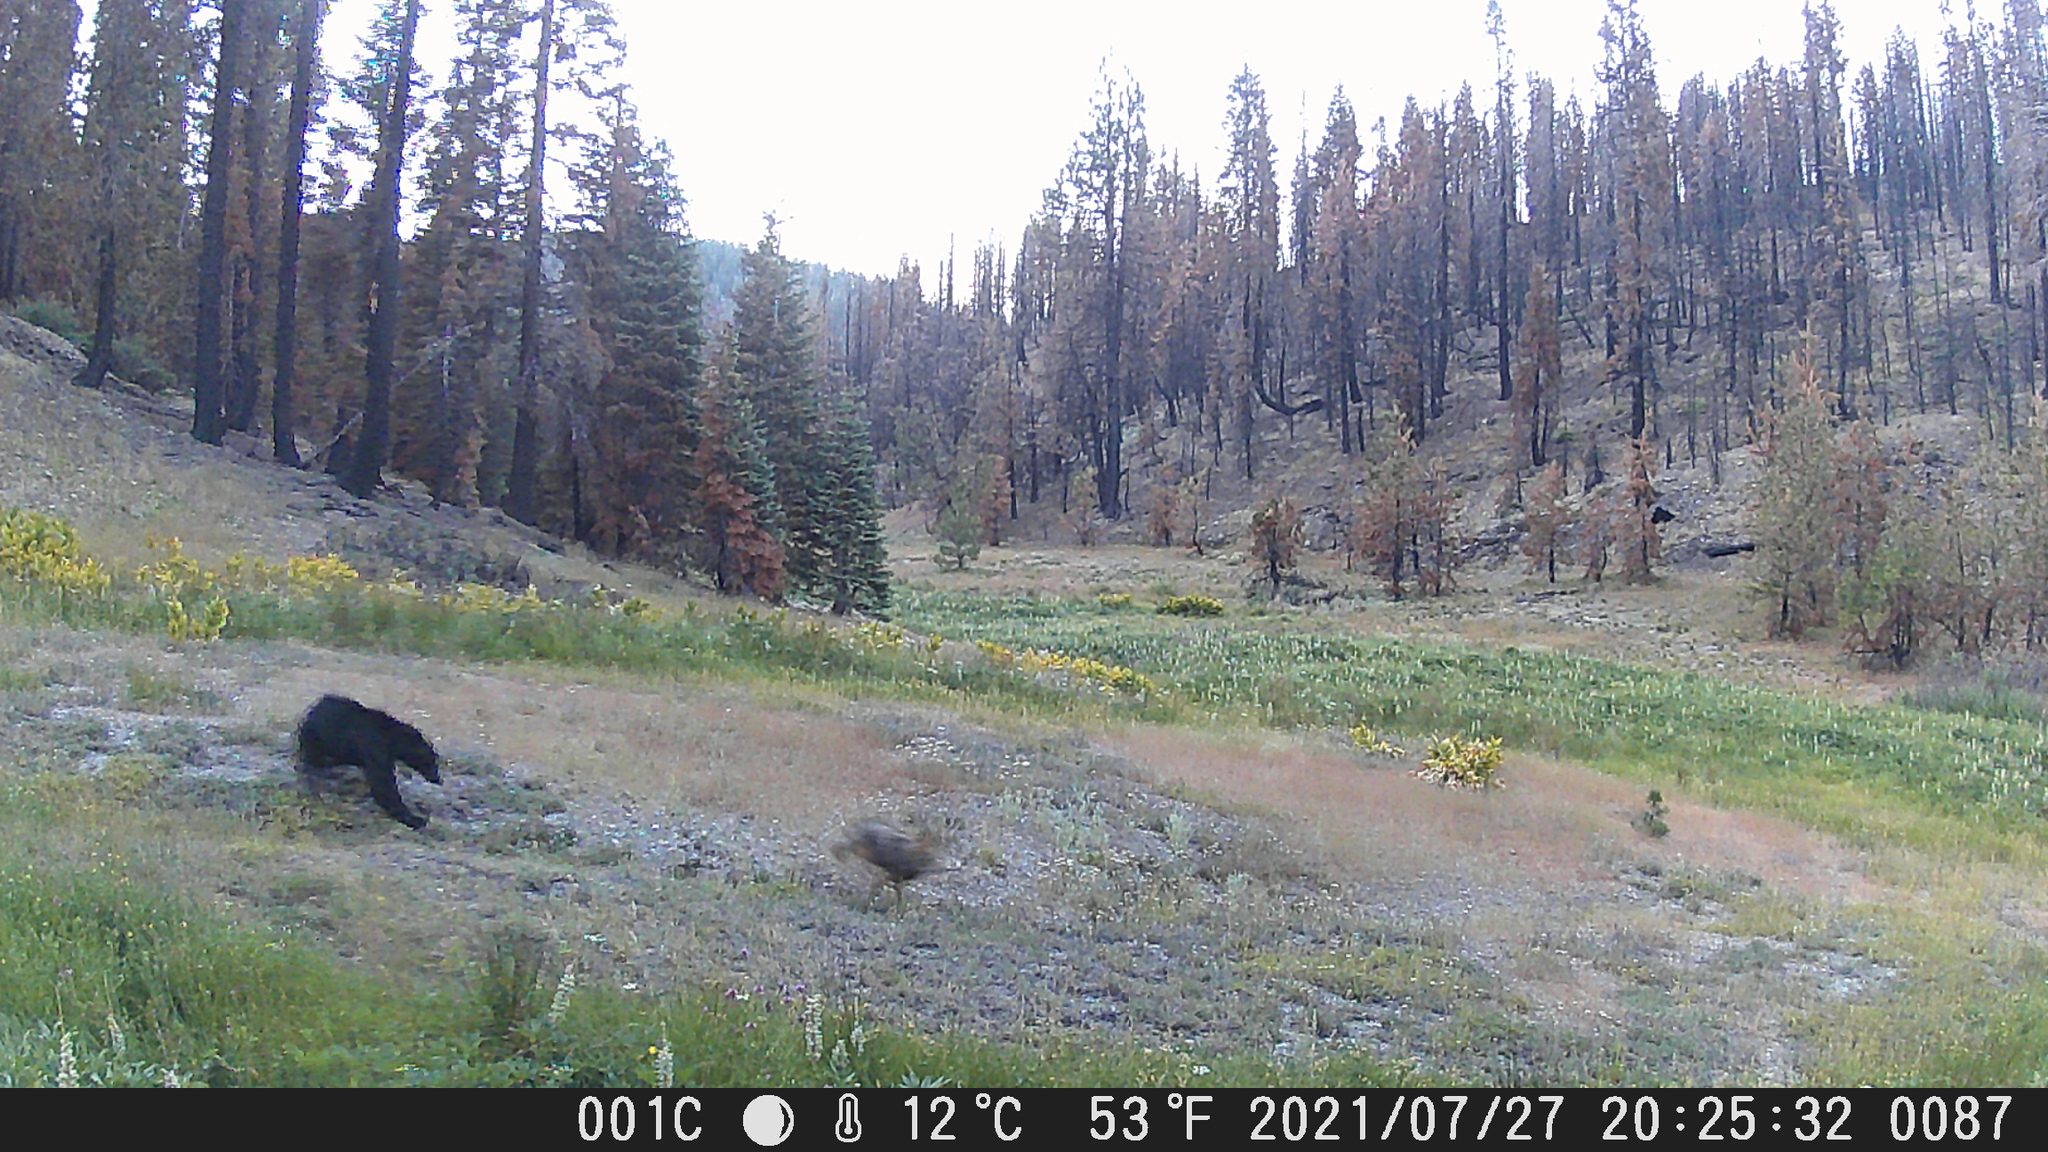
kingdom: Animalia
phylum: Chordata
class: Mammalia
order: Carnivora
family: Ursidae
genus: Ursus
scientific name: Ursus americanus
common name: American black bear
